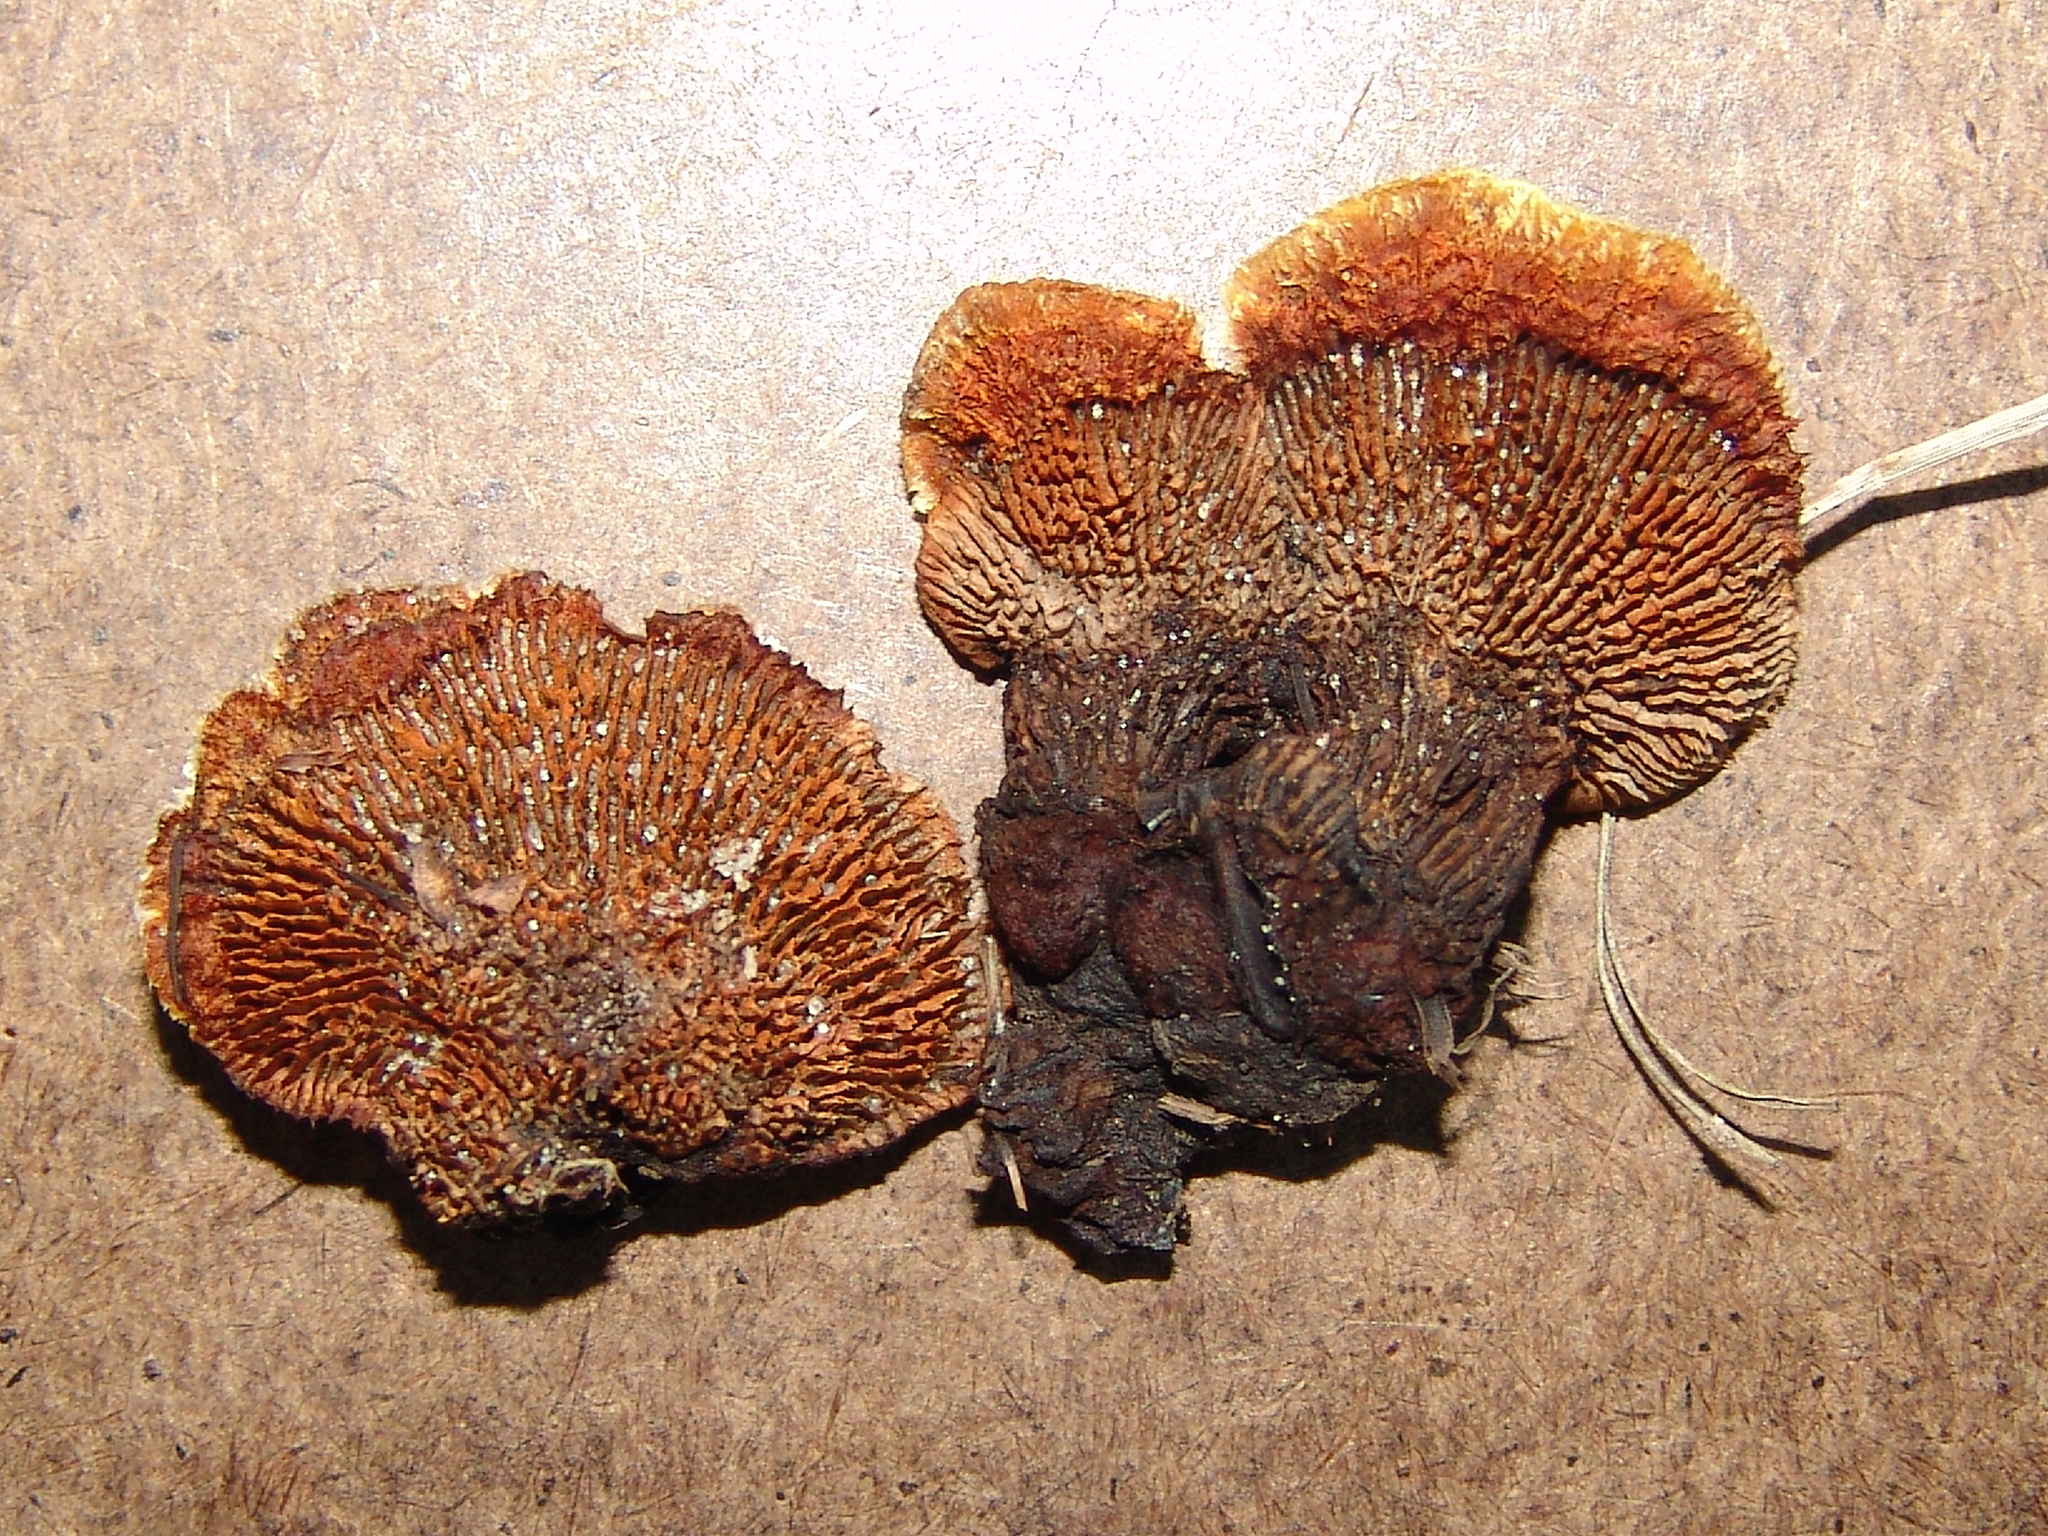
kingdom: Fungi
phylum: Basidiomycota
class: Agaricomycetes
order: Gloeophyllales
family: Gloeophyllaceae
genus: Gloeophyllum
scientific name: Gloeophyllum sepiarium
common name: Conifer mazegill
